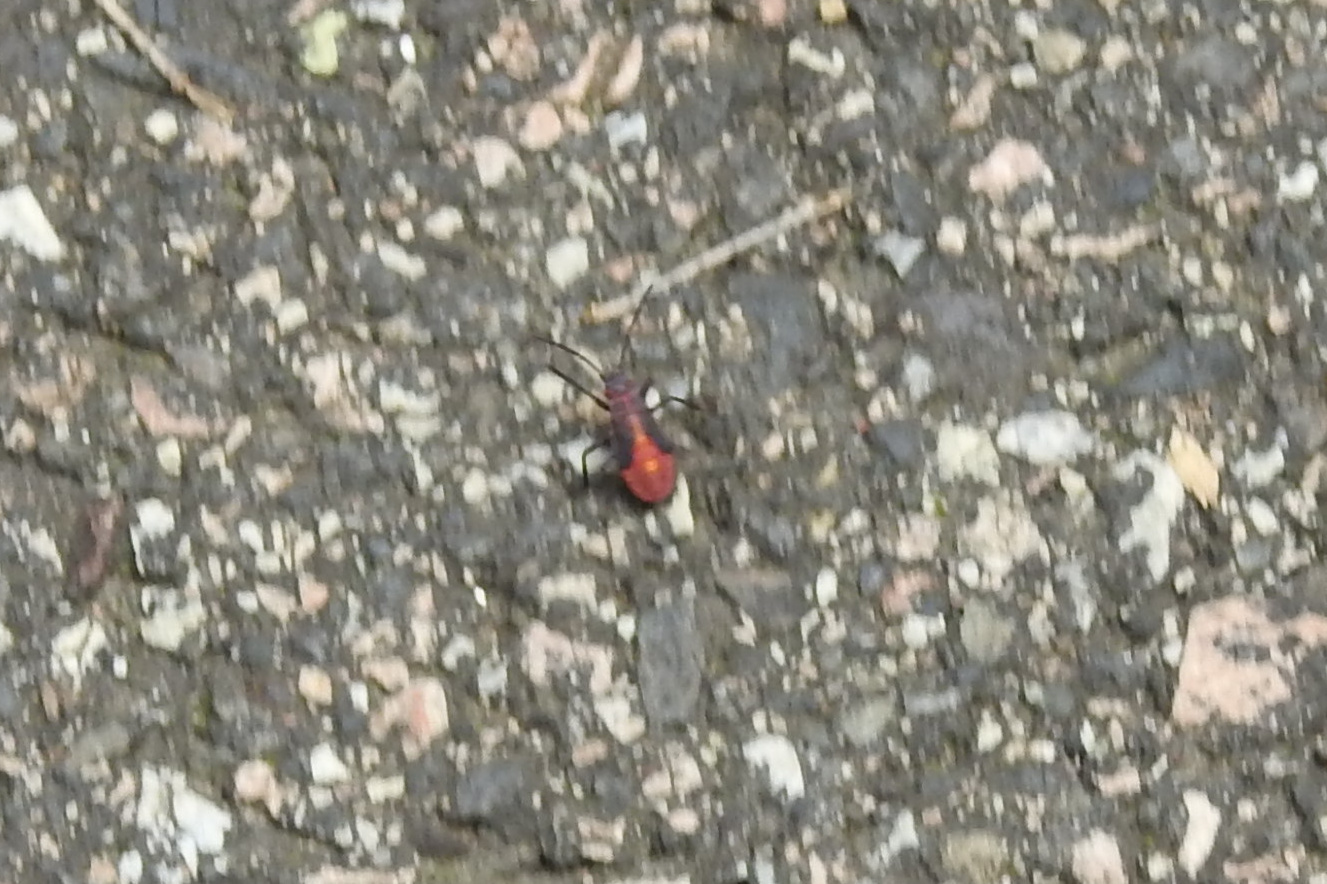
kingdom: Animalia
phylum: Arthropoda
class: Insecta
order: Hemiptera
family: Rhopalidae
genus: Boisea
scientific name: Boisea trivittata
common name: Boxelder bug
